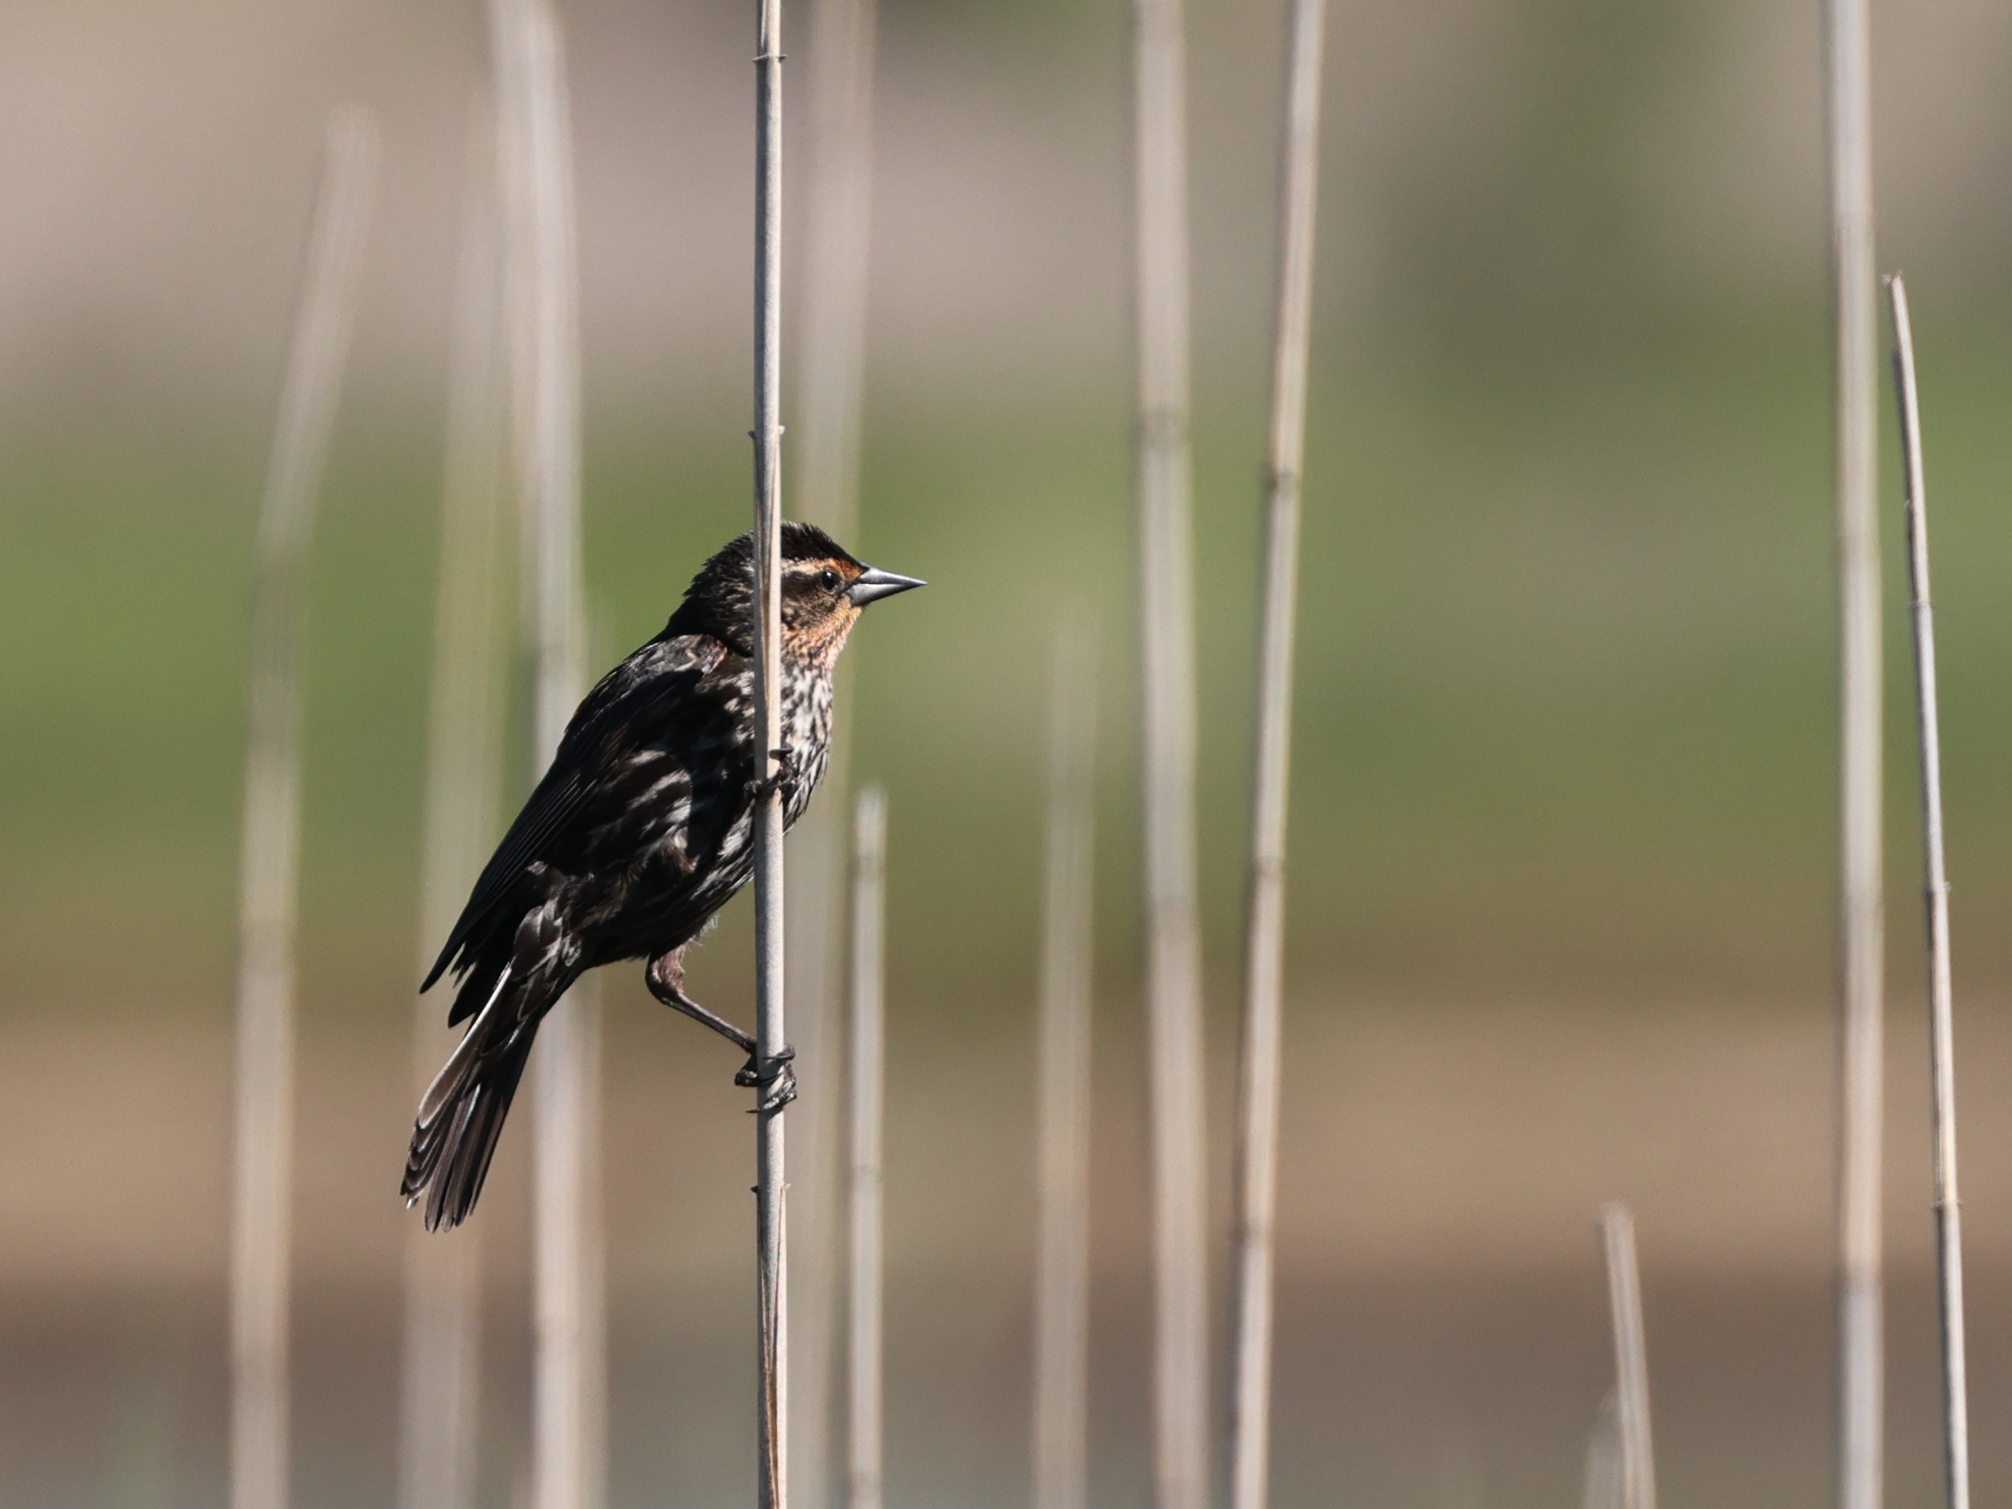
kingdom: Animalia
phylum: Chordata
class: Aves
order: Passeriformes
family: Icteridae
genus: Agelaius
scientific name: Agelaius phoeniceus
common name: Red-winged blackbird
